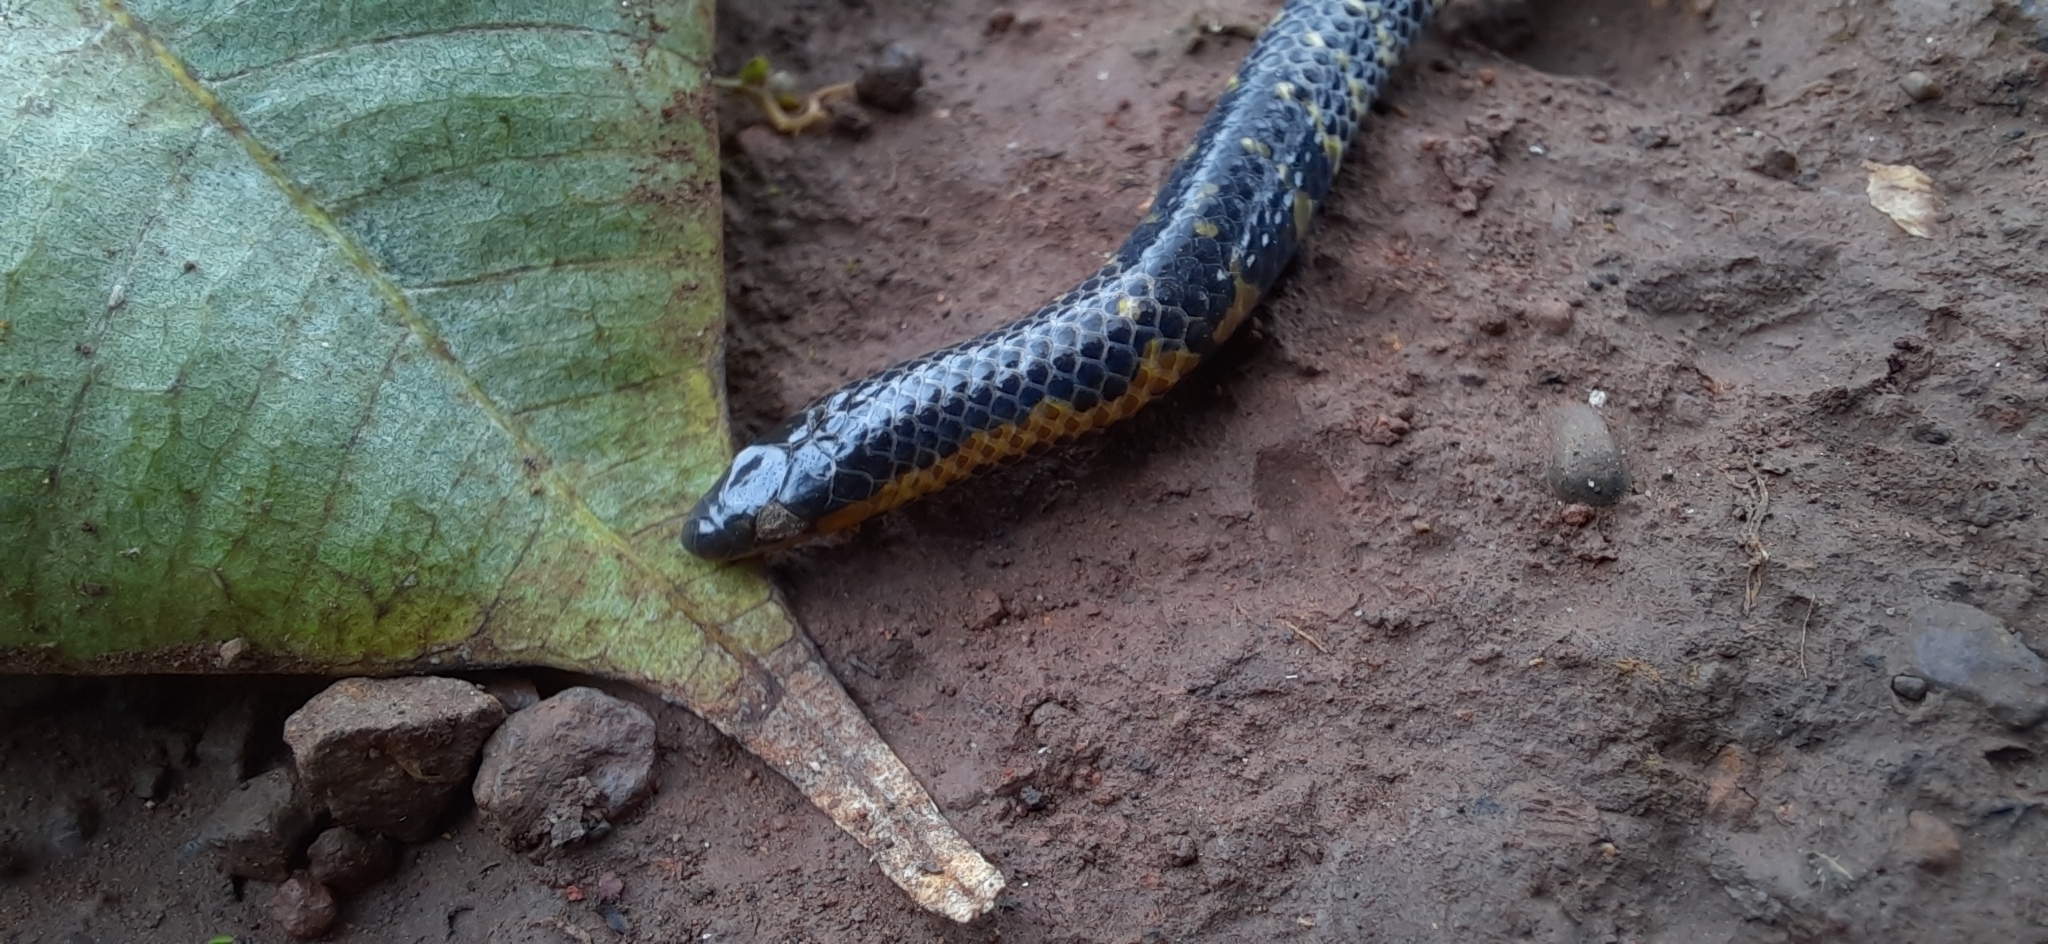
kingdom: Animalia
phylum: Chordata
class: Squamata
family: Uropeltidae
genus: Uropeltis
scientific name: Uropeltis macrolepis
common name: Bombay earth snake
